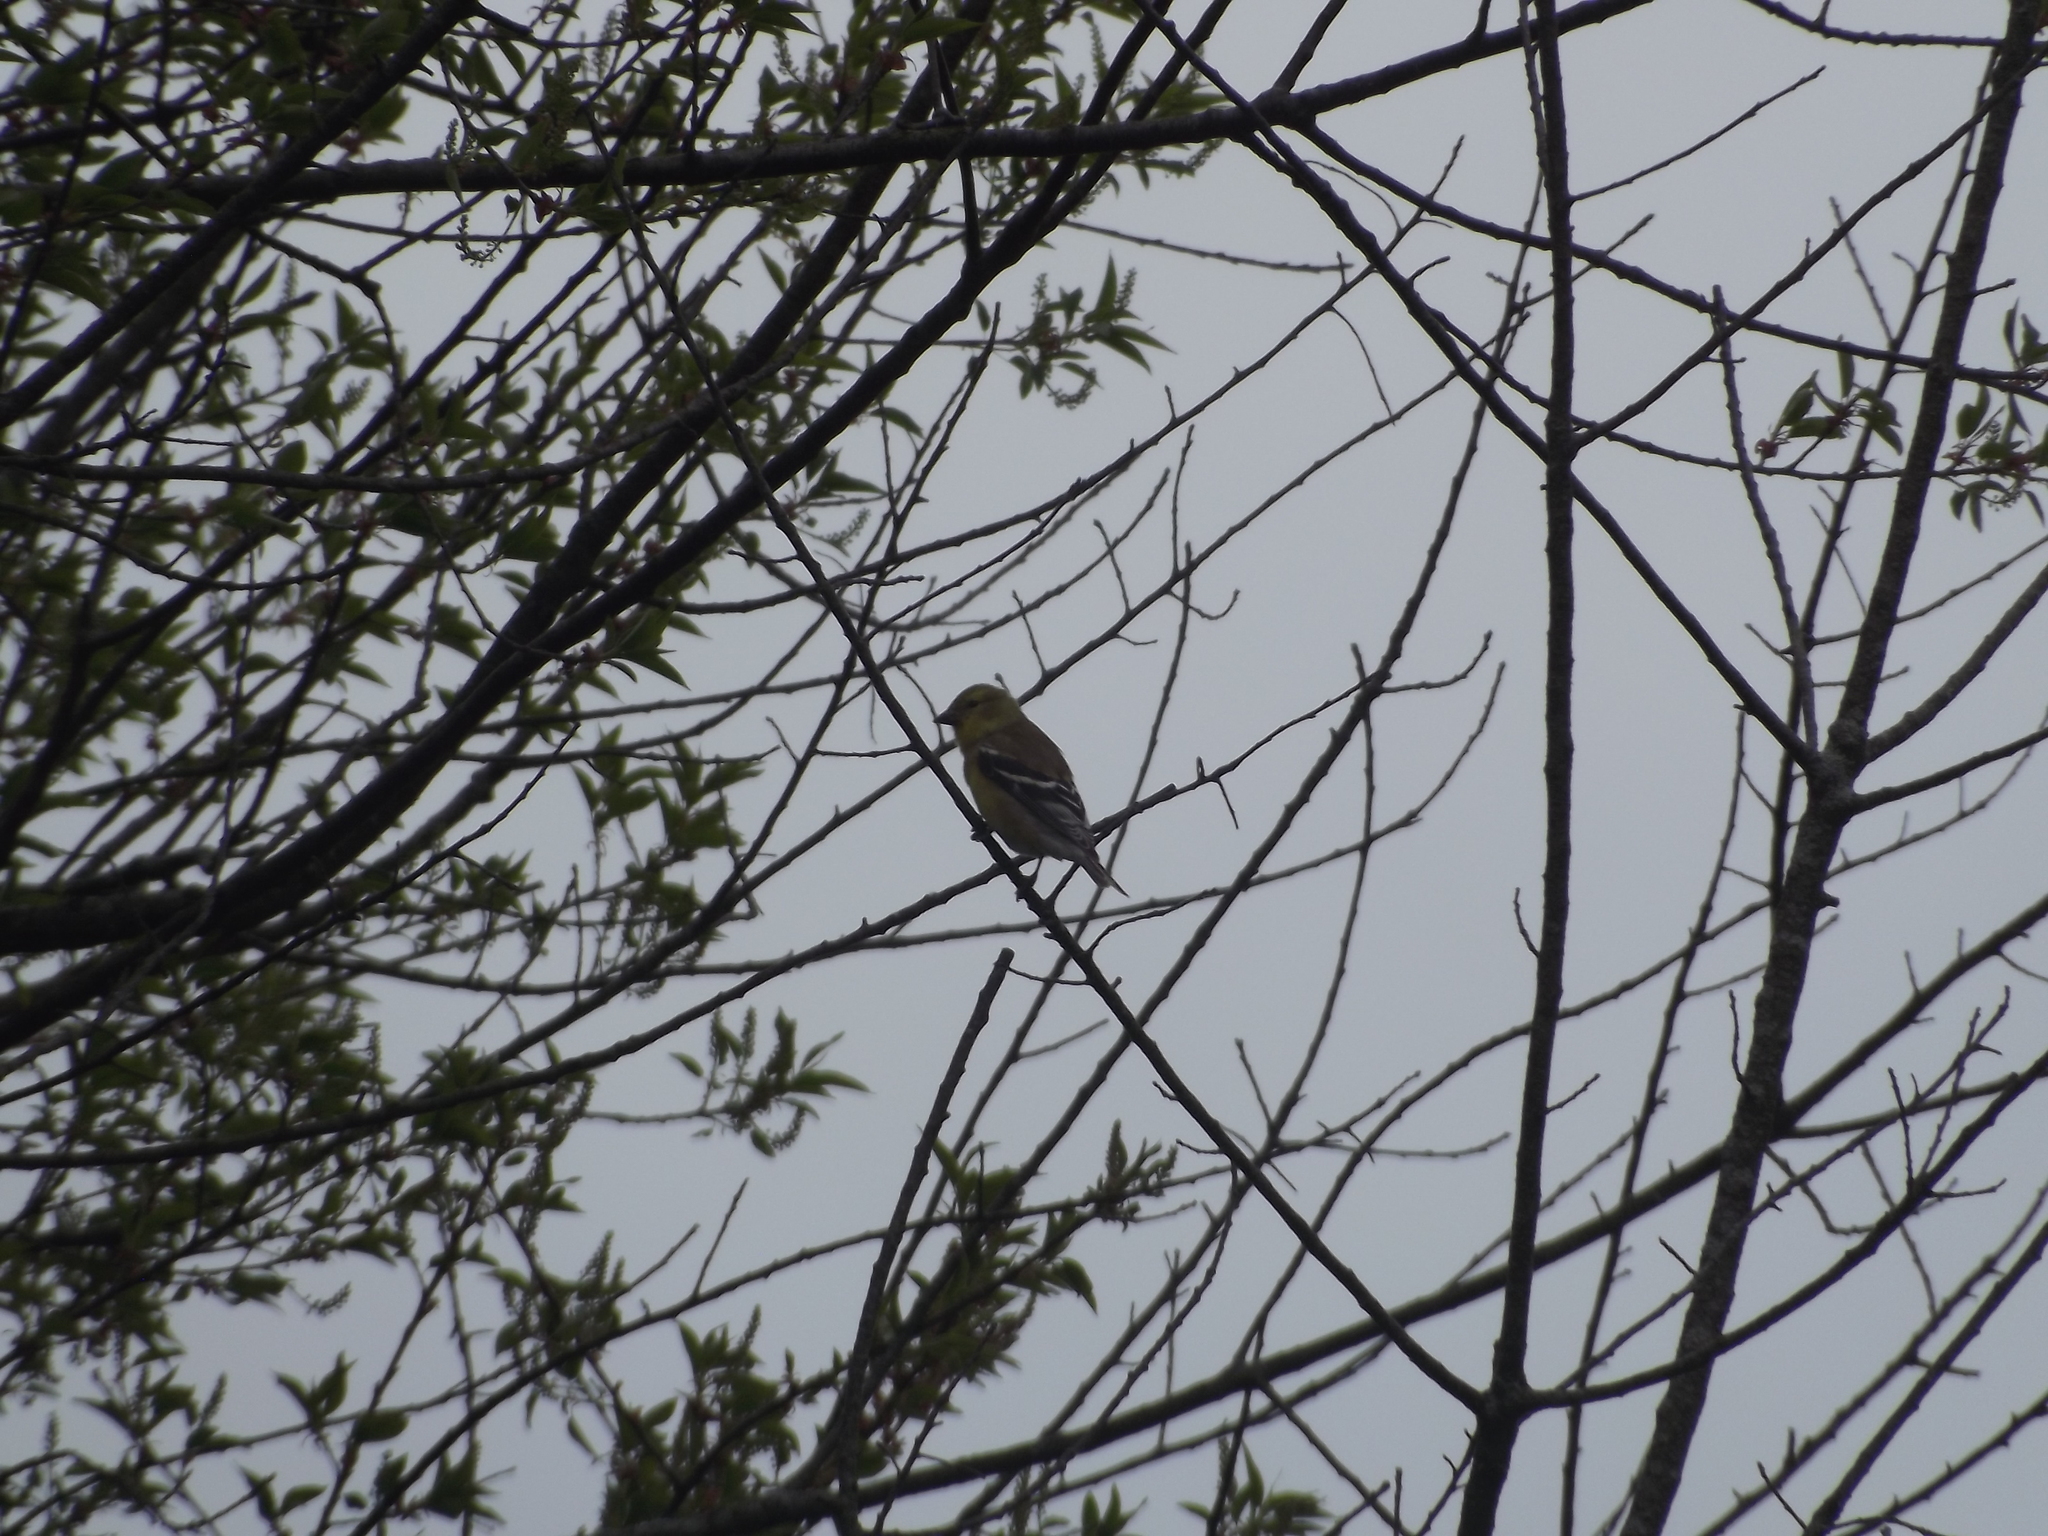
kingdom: Animalia
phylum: Chordata
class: Aves
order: Passeriformes
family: Fringillidae
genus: Spinus
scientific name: Spinus tristis
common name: American goldfinch
